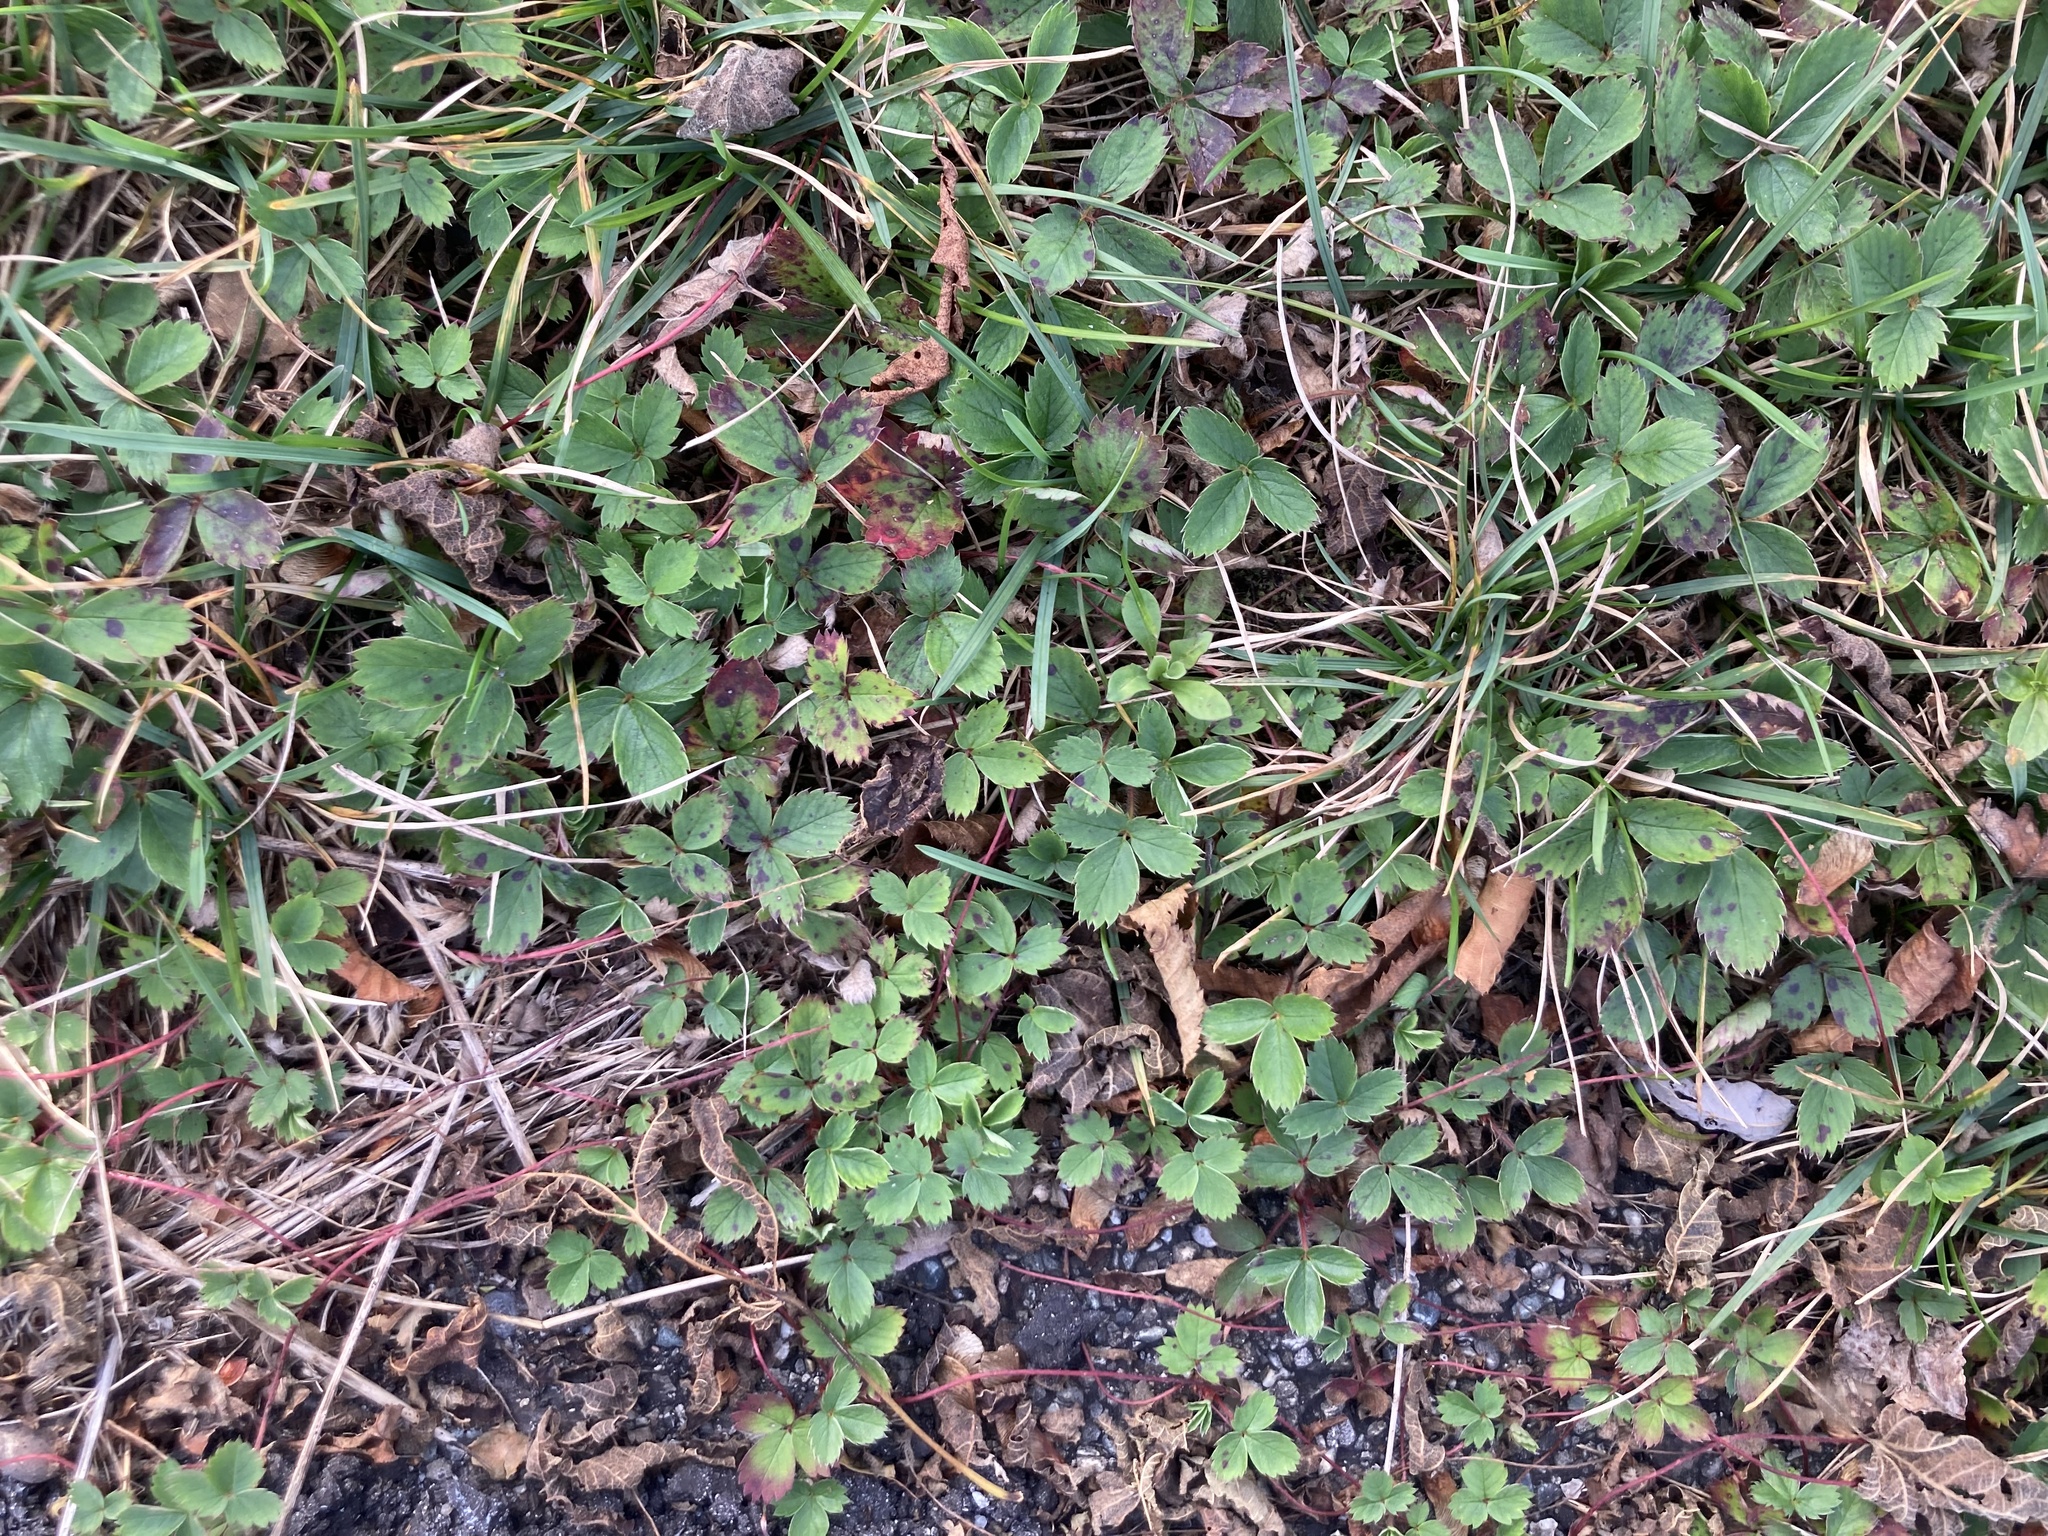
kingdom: Plantae
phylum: Tracheophyta
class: Magnoliopsida
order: Rosales
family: Rosaceae
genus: Fragaria
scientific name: Fragaria virginiana
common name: Thickleaved wild strawberry
